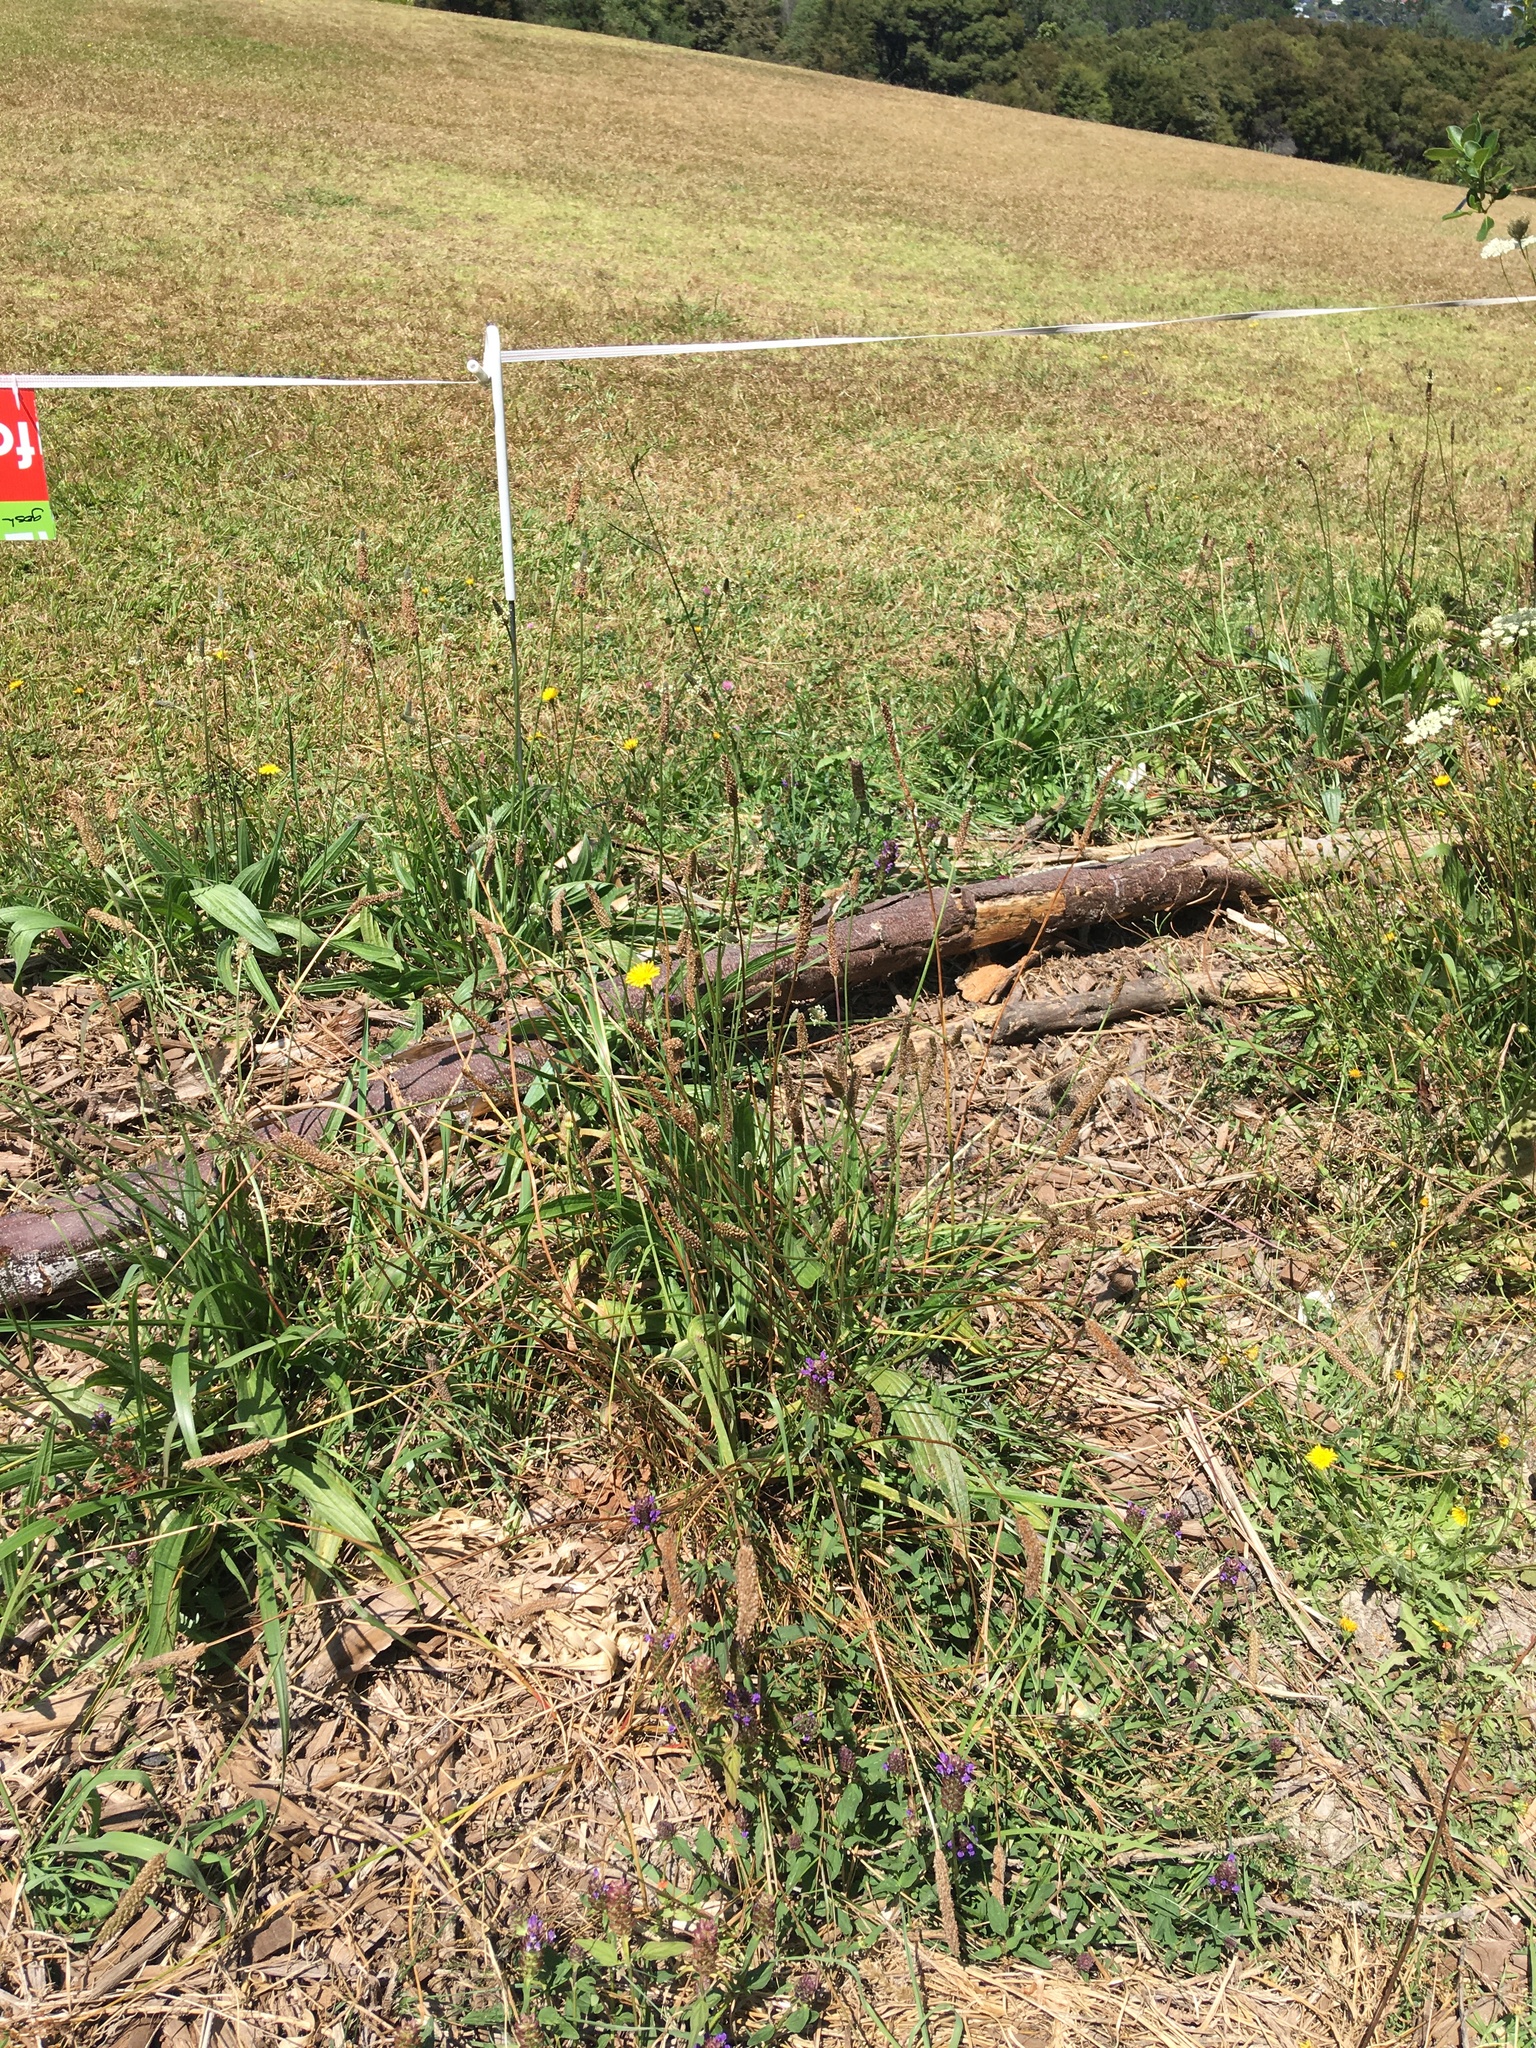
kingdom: Plantae
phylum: Tracheophyta
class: Magnoliopsida
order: Lamiales
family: Plantaginaceae
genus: Plantago
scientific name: Plantago lanceolata
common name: Ribwort plantain
